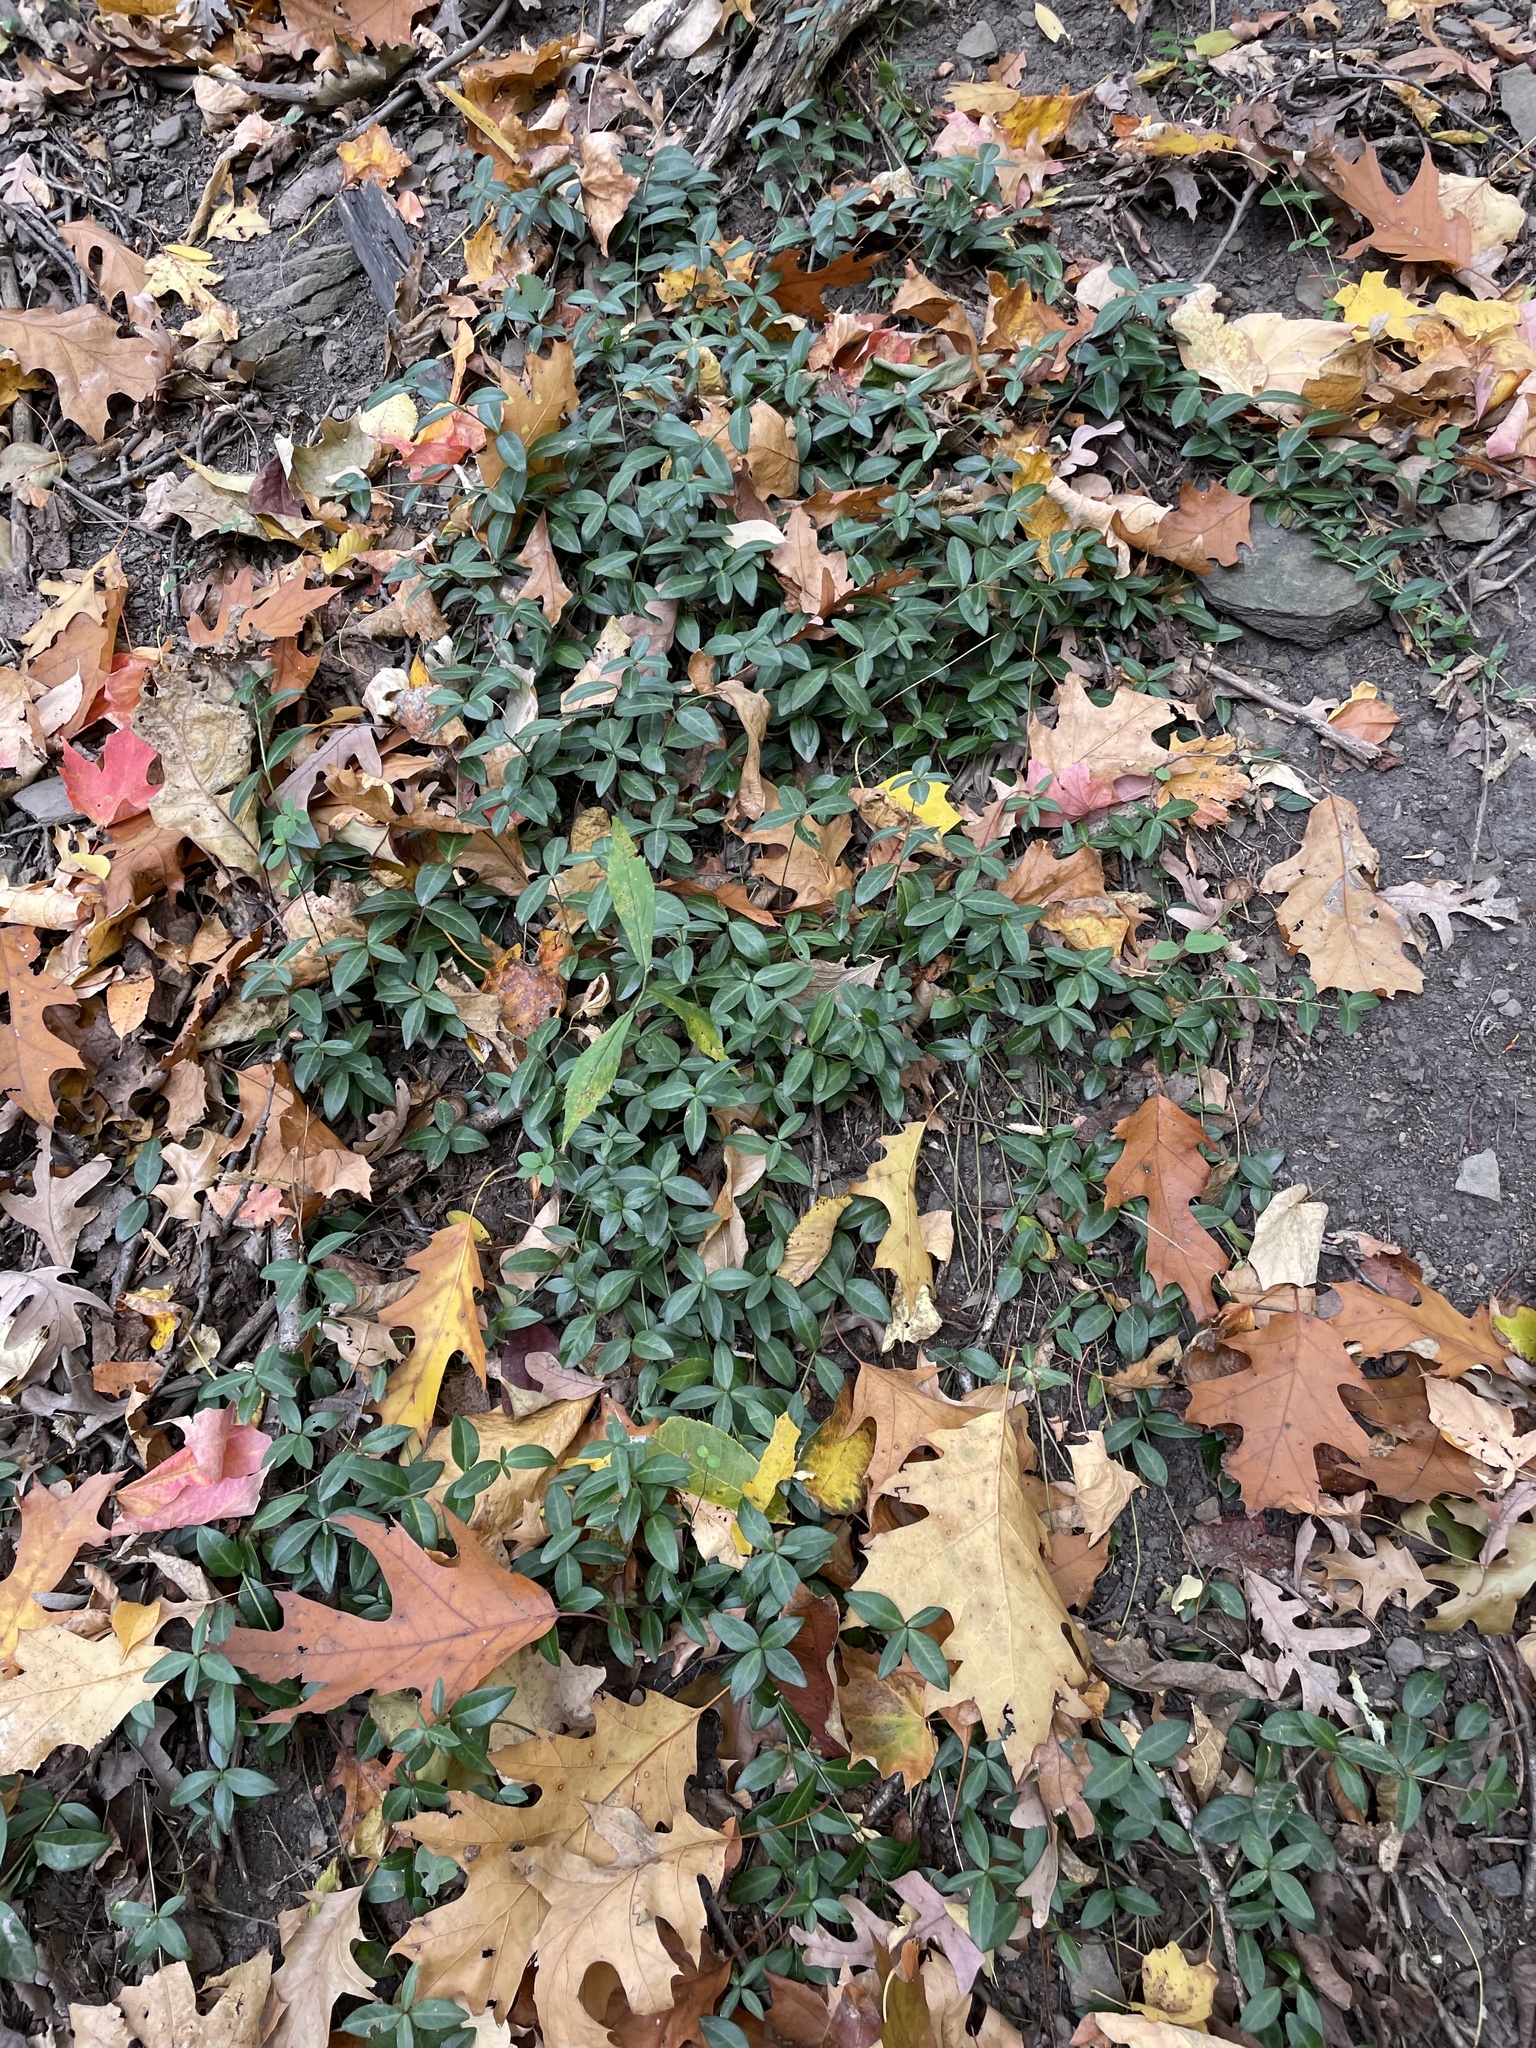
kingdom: Plantae
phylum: Tracheophyta
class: Magnoliopsida
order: Gentianales
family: Apocynaceae
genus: Vinca
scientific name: Vinca minor
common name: Lesser periwinkle
